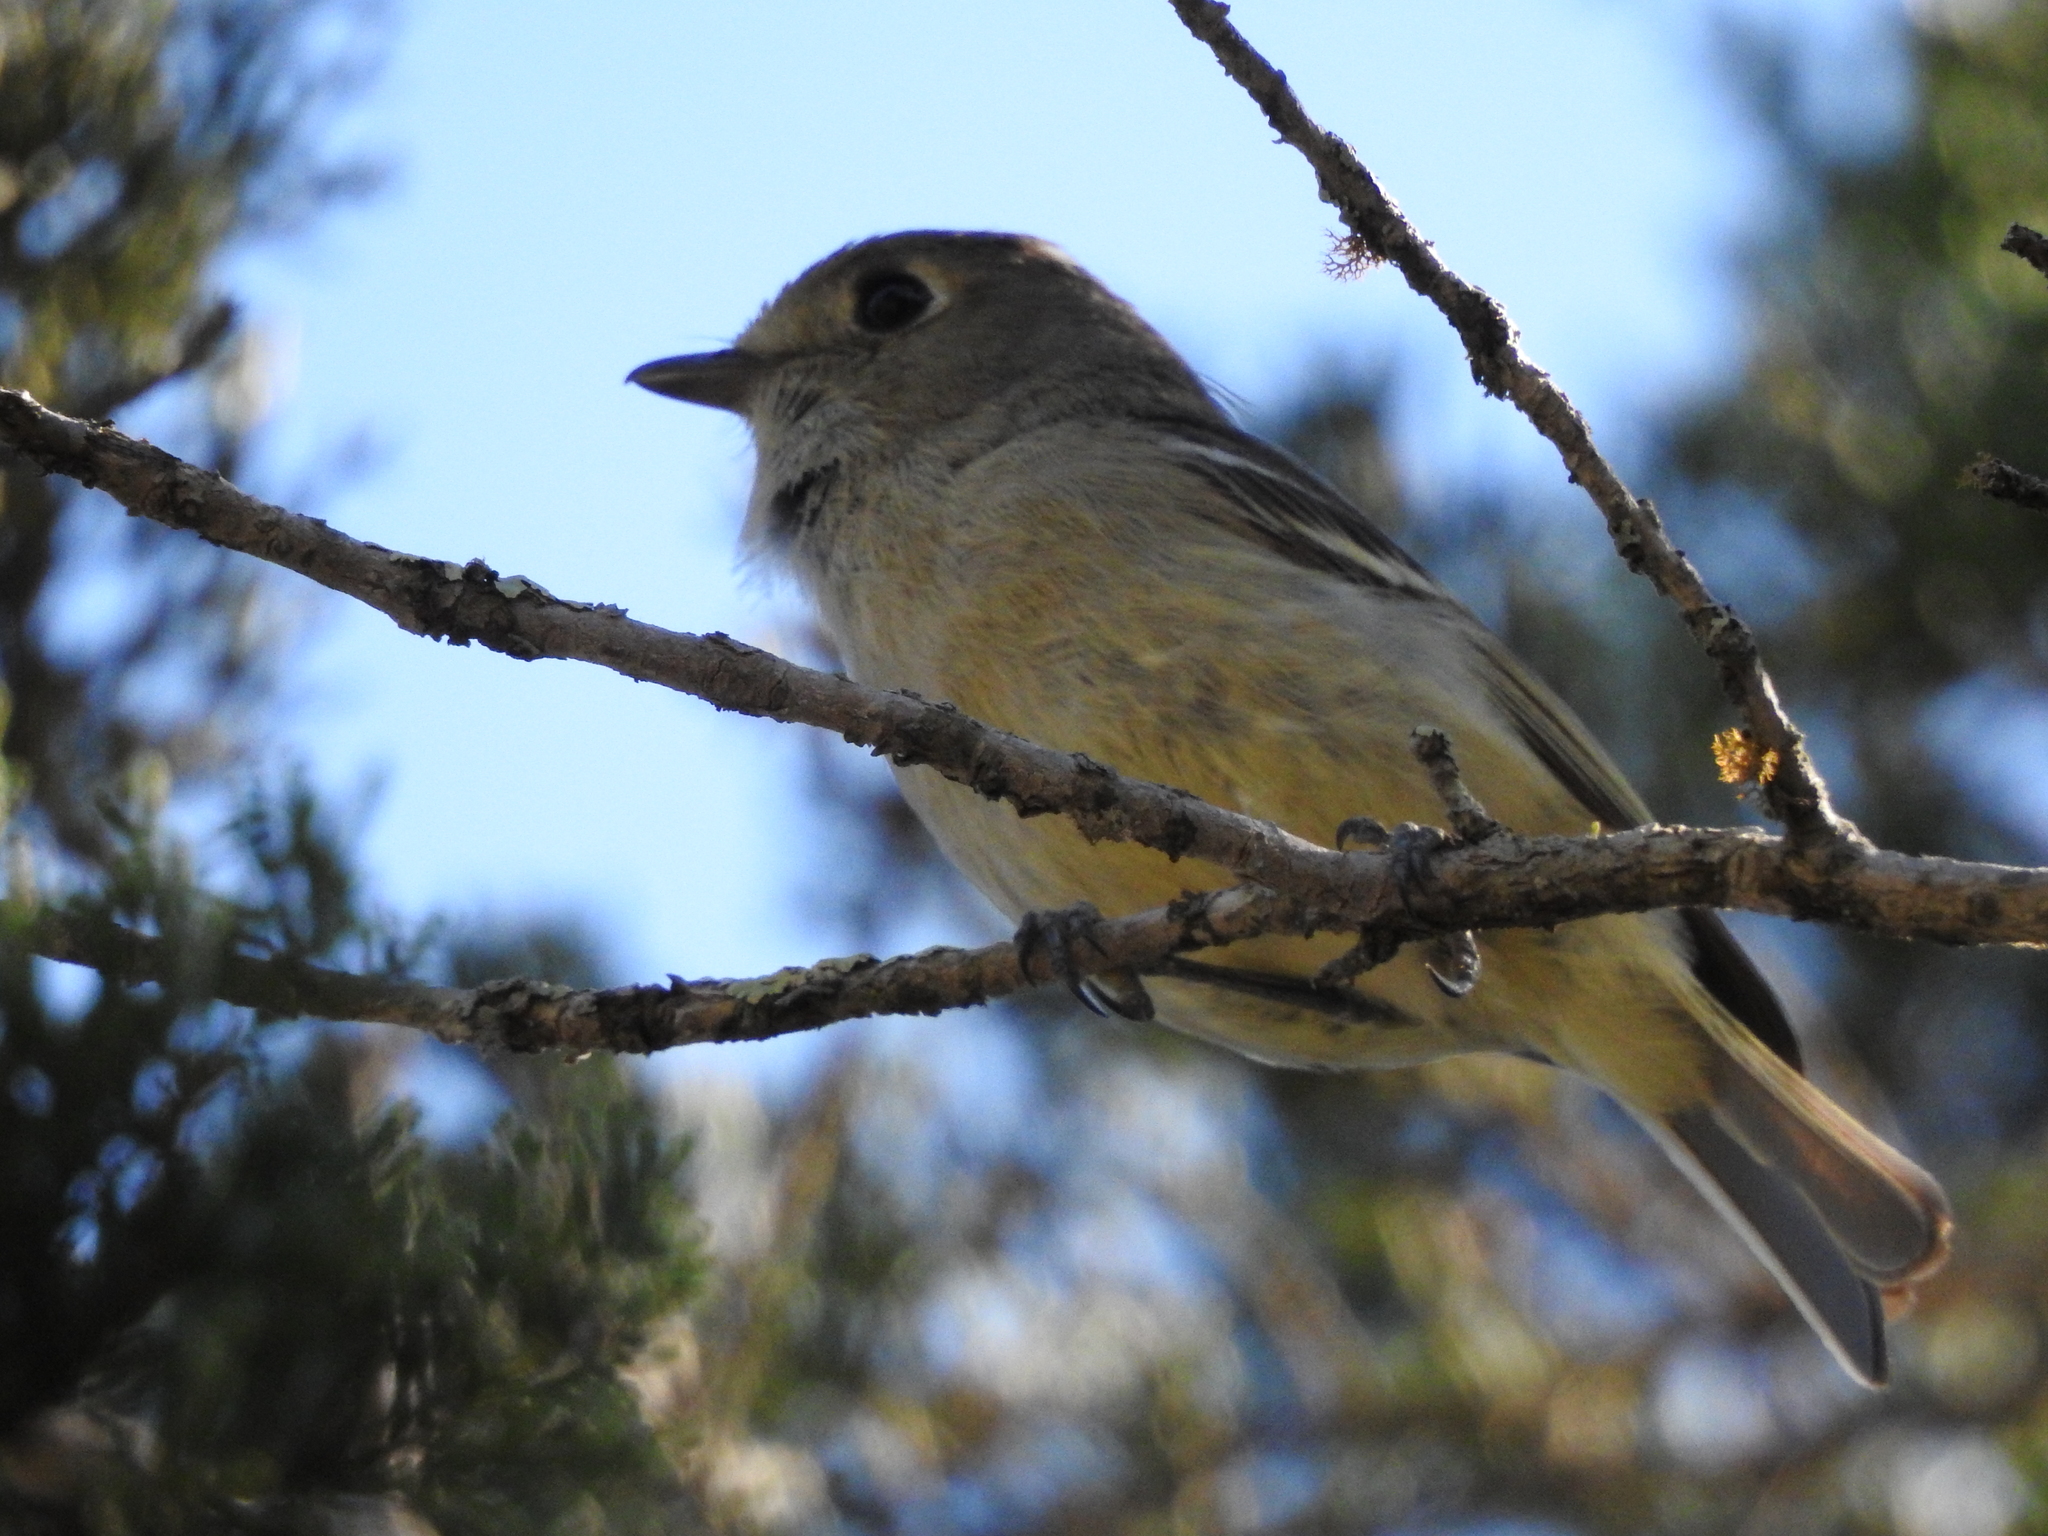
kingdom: Animalia
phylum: Chordata
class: Aves
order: Passeriformes
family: Vireonidae
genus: Vireo
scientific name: Vireo huttoni
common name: Hutton's vireo
